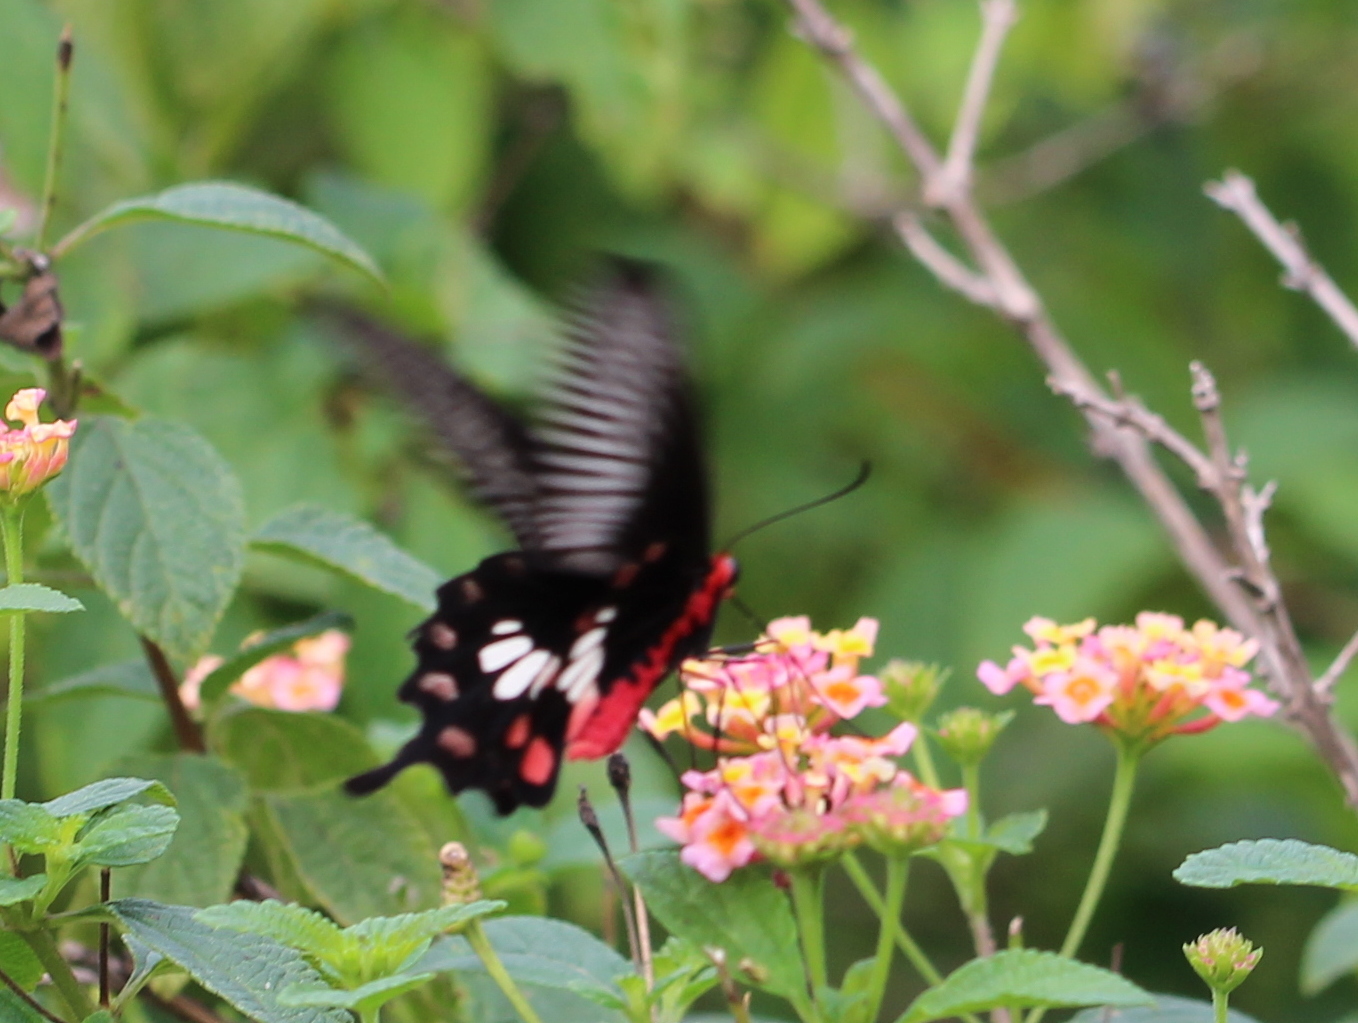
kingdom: Animalia
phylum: Arthropoda
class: Insecta
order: Lepidoptera
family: Papilionidae
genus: Pachliopta
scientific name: Pachliopta aristolochiae
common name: Common rose
